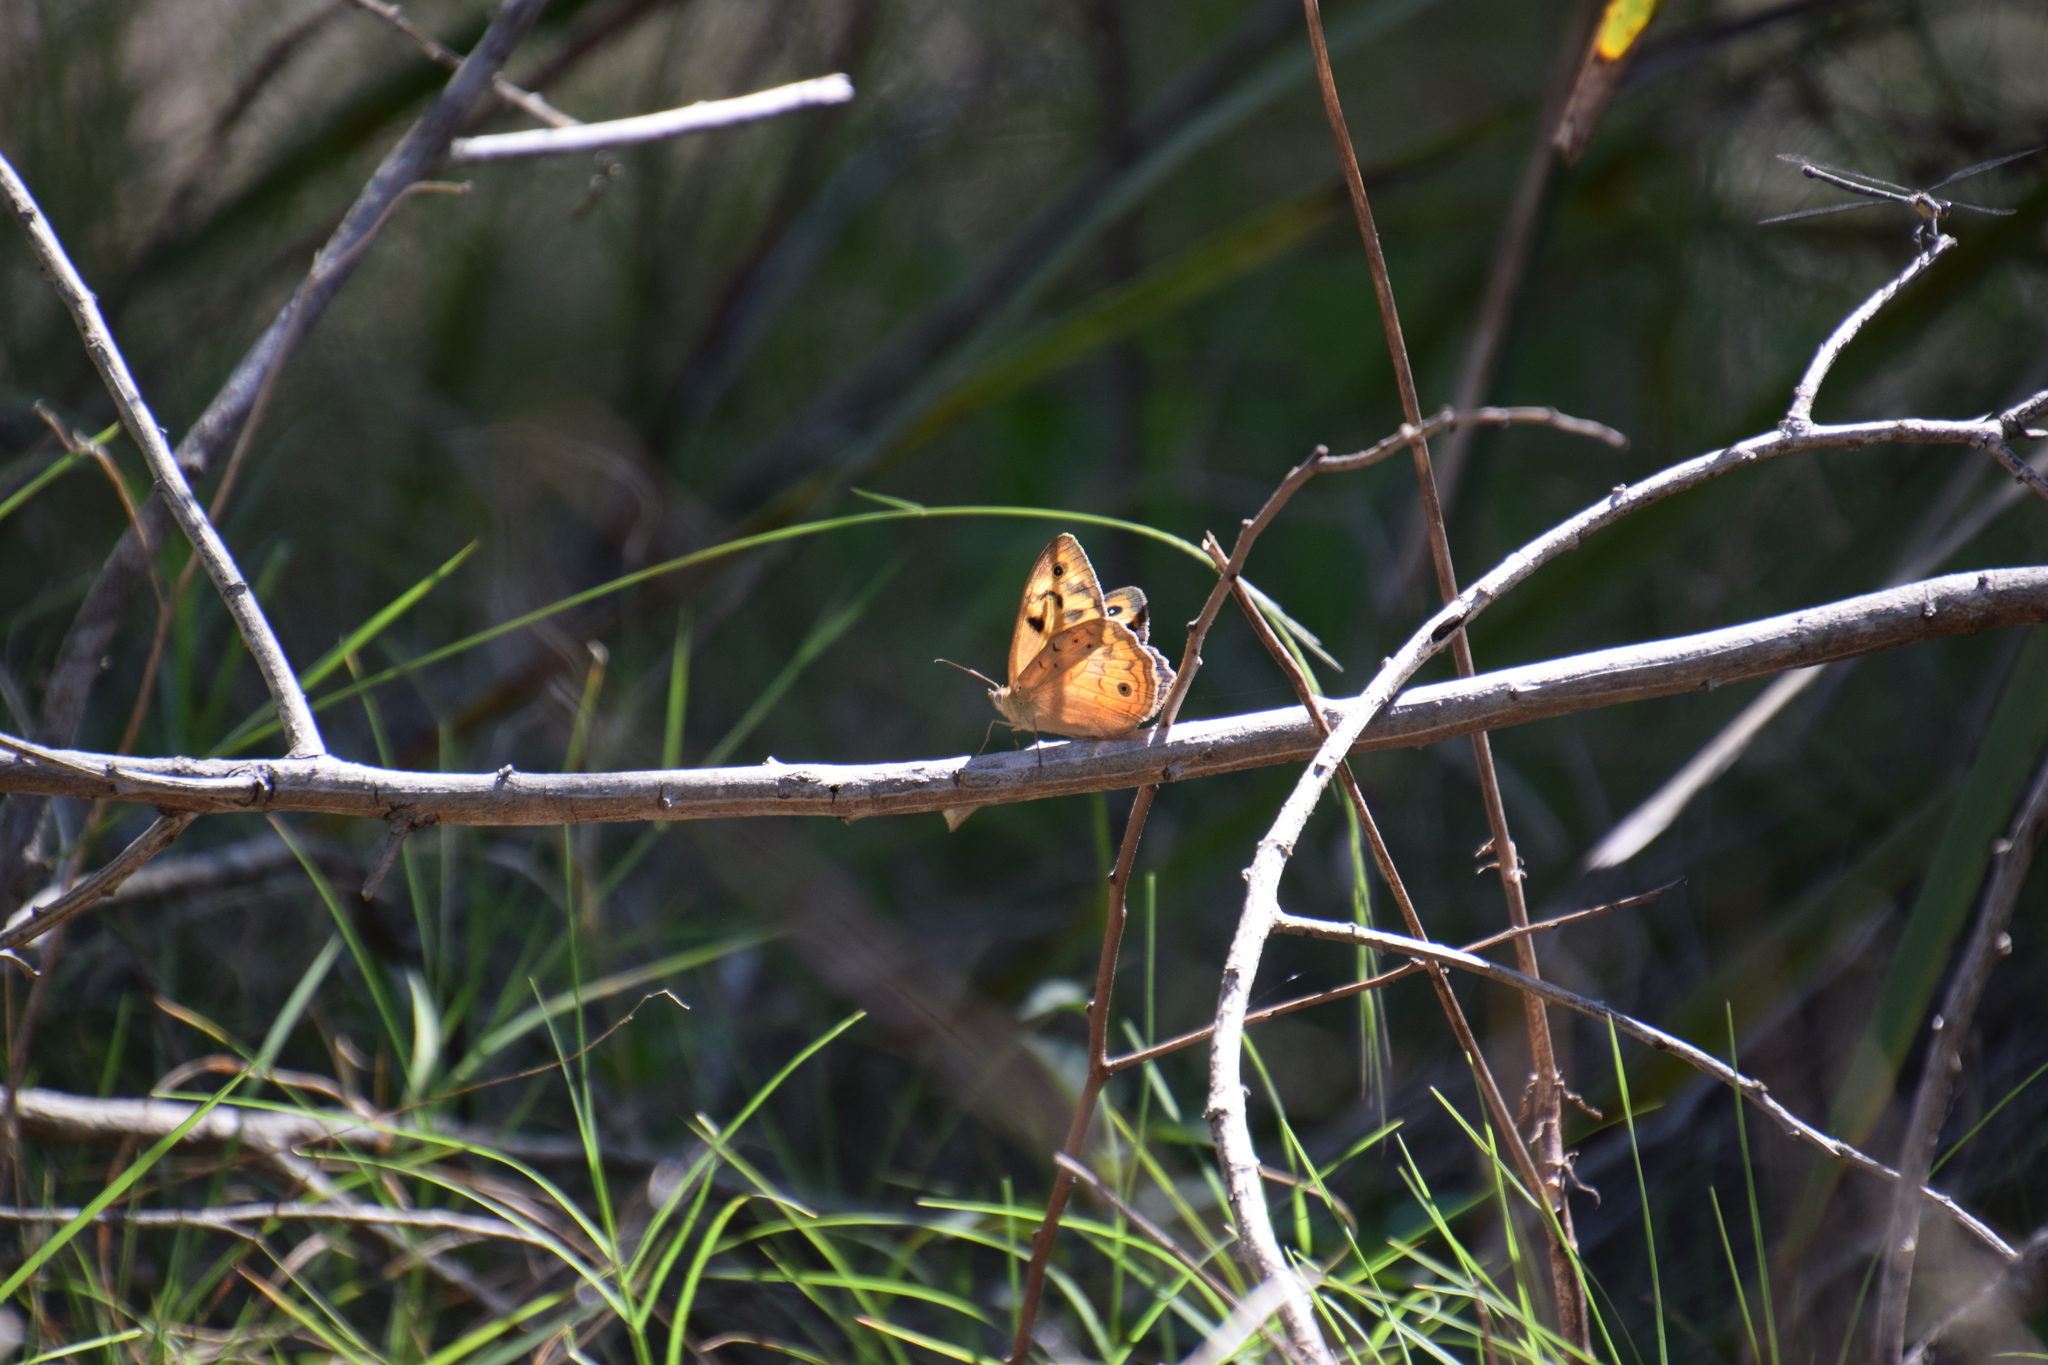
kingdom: Animalia
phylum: Arthropoda
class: Insecta
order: Lepidoptera
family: Nymphalidae
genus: Heteronympha
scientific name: Heteronympha merope
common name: Common brown
